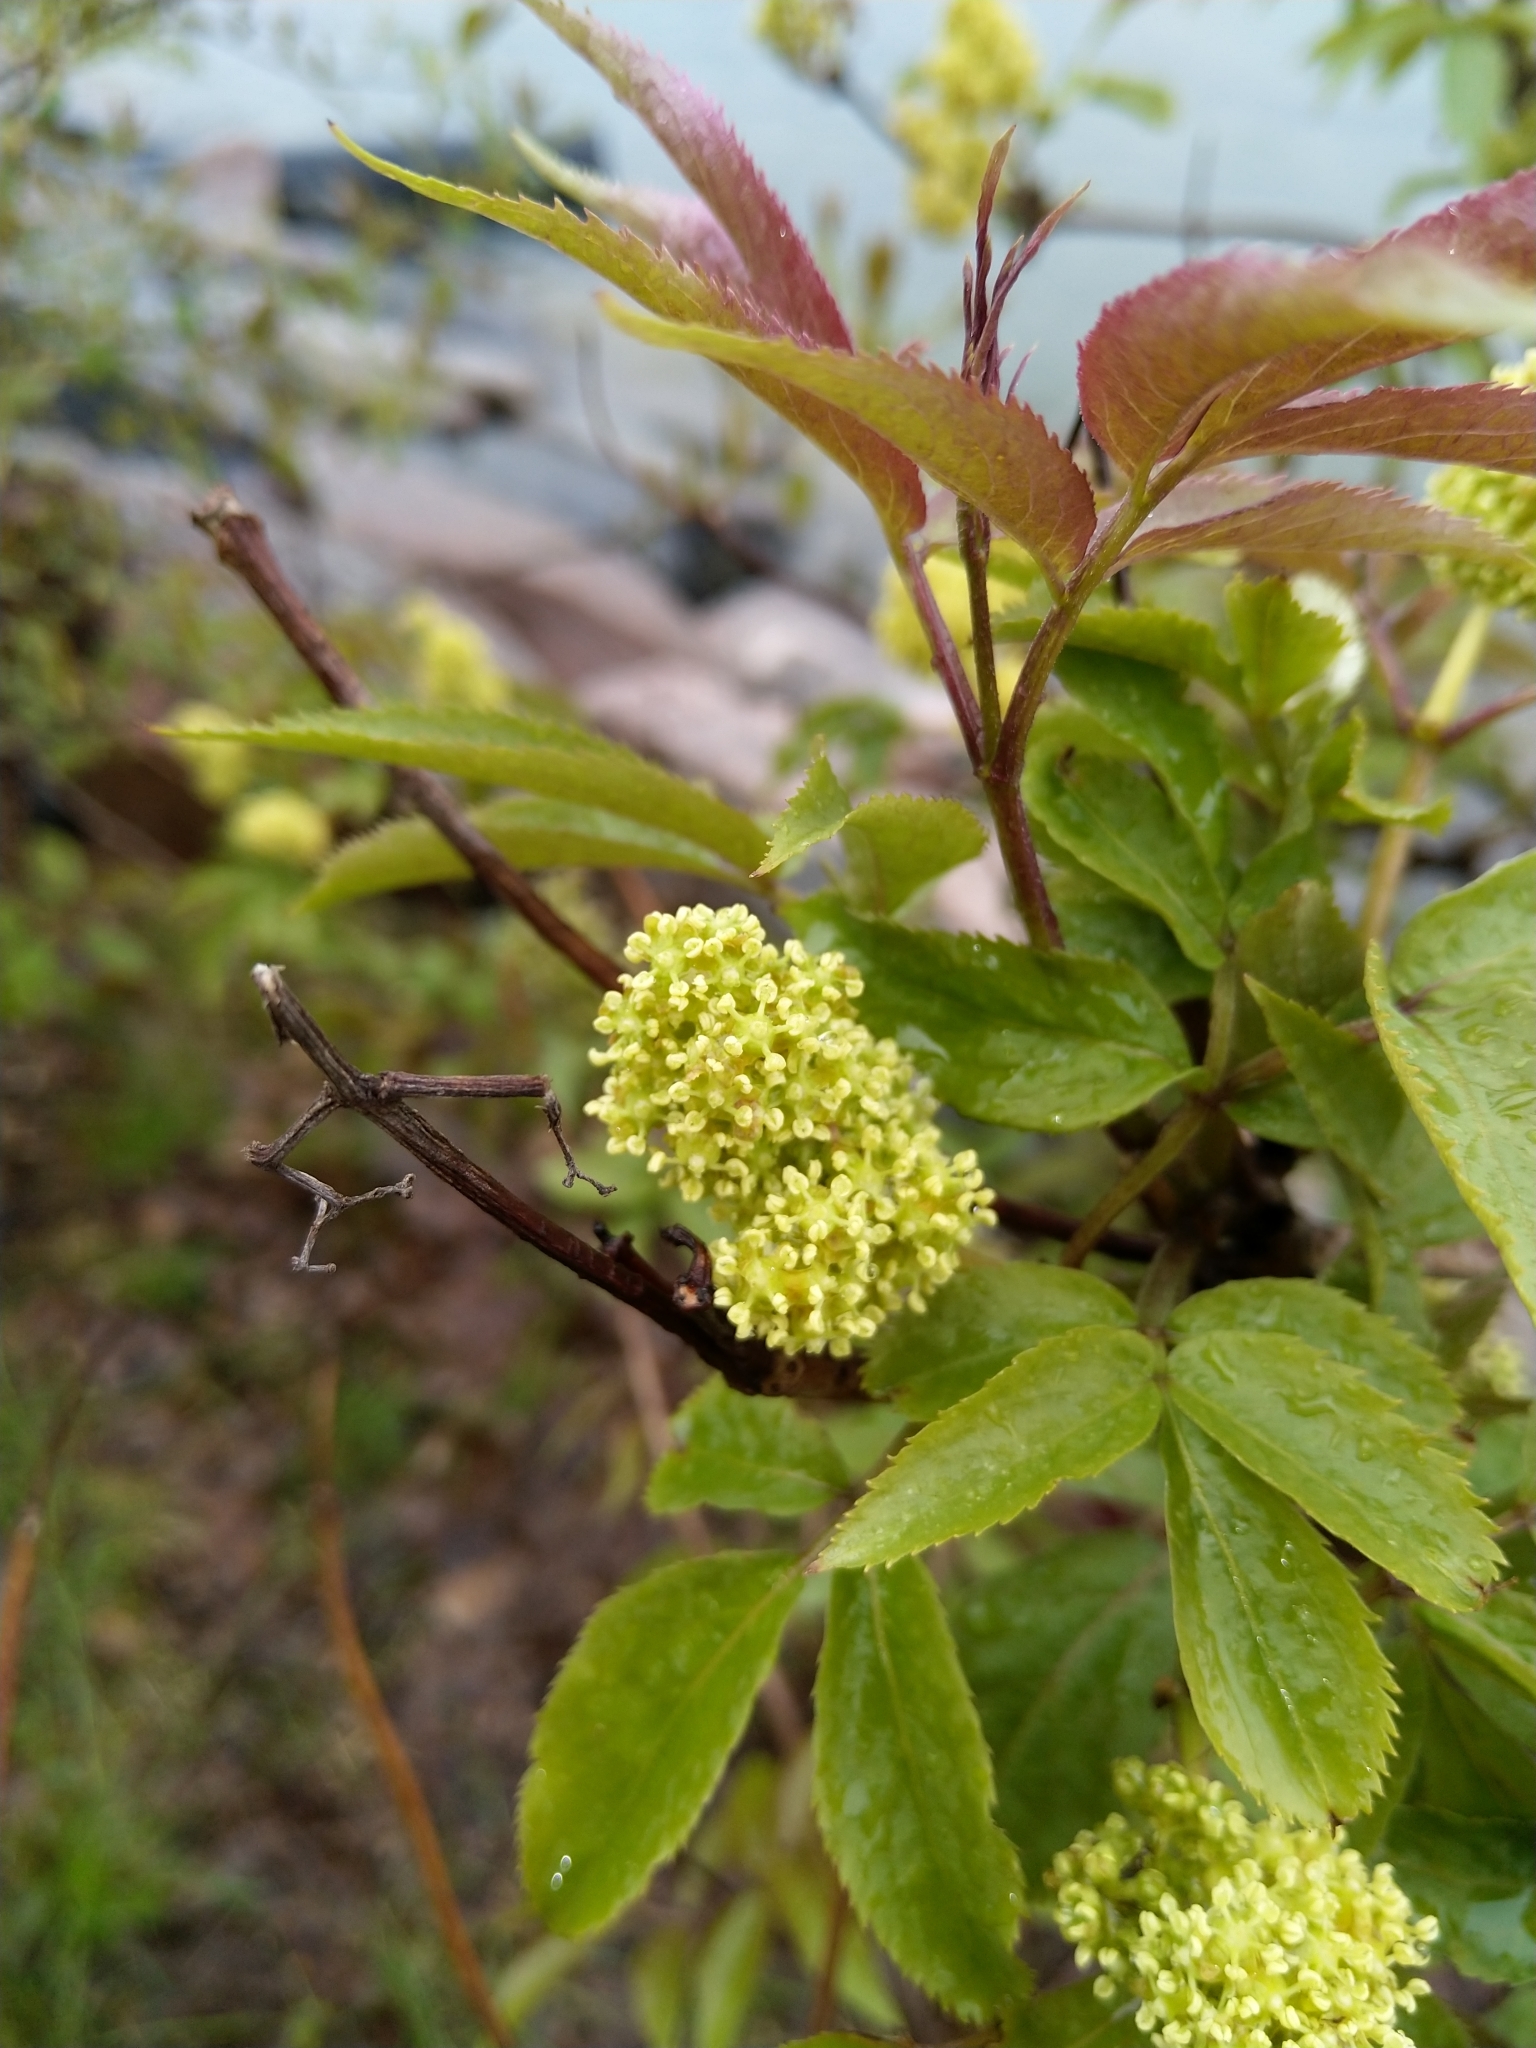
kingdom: Plantae
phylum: Tracheophyta
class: Magnoliopsida
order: Dipsacales
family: Viburnaceae
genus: Sambucus
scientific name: Sambucus racemosa
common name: Red-berried elder
